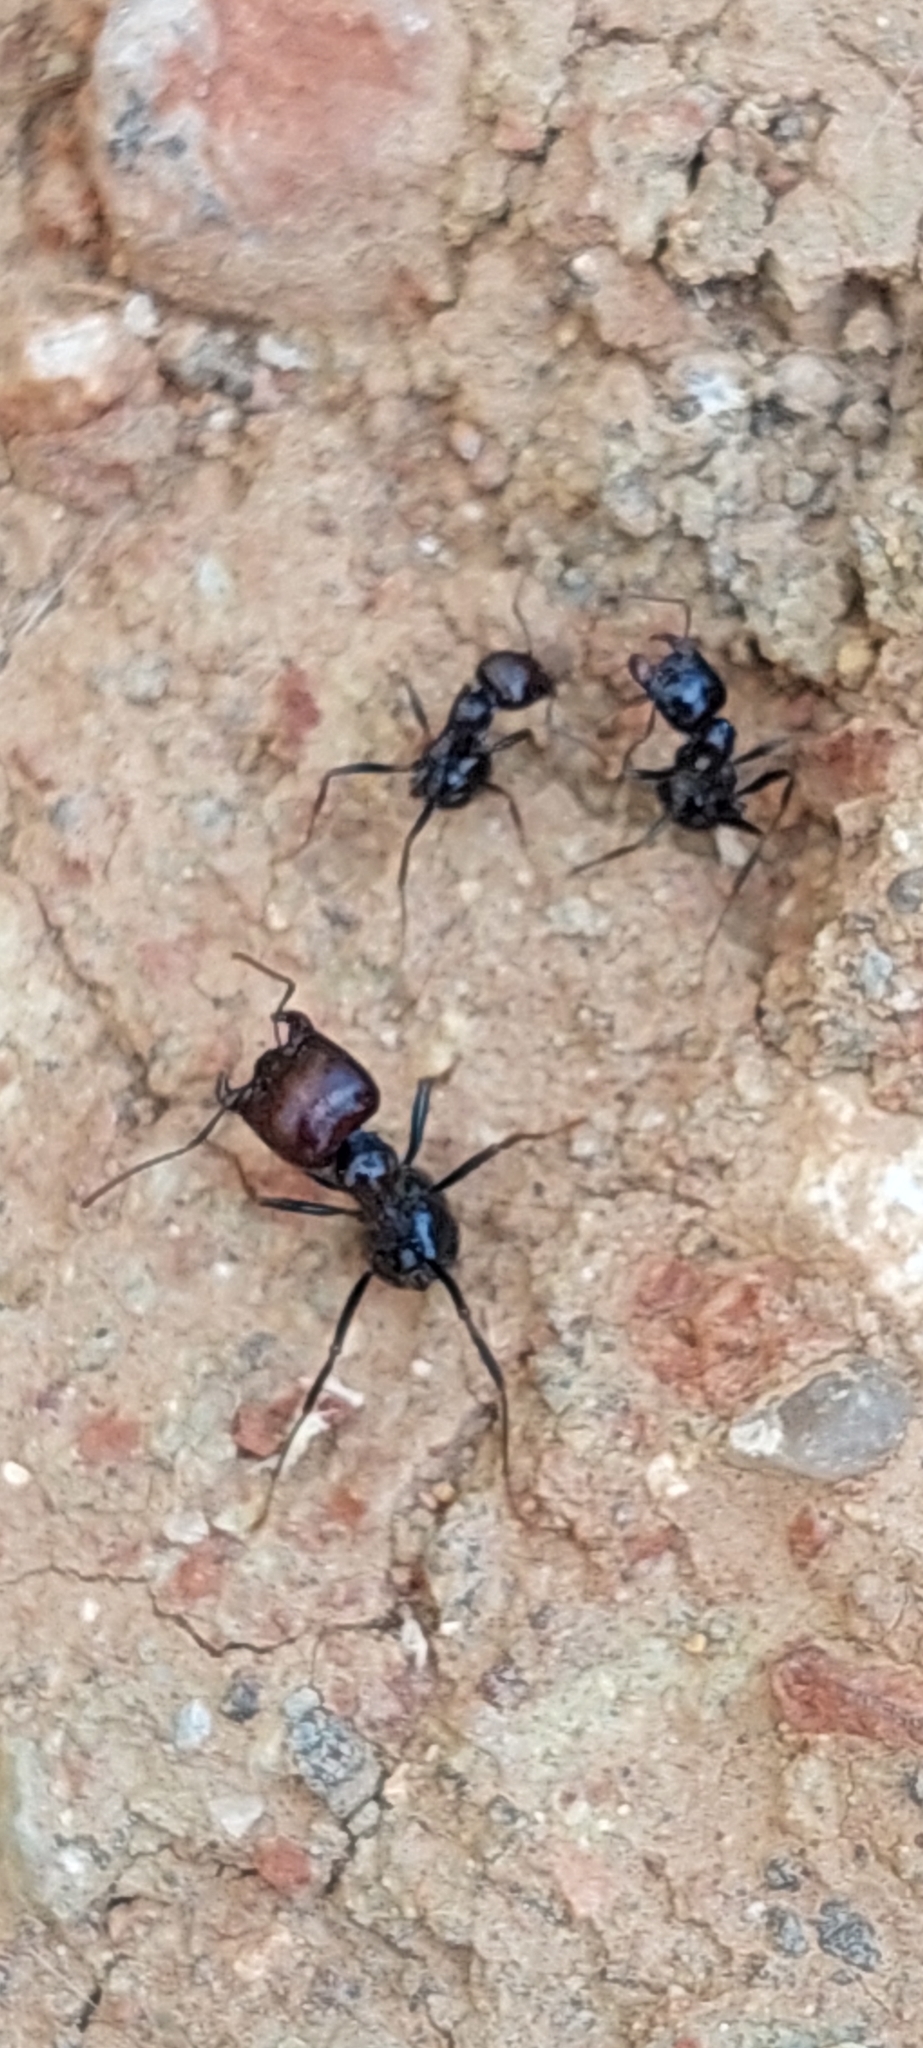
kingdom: Animalia
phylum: Arthropoda
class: Insecta
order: Hymenoptera
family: Formicidae
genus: Messor
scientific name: Messor barbarus
